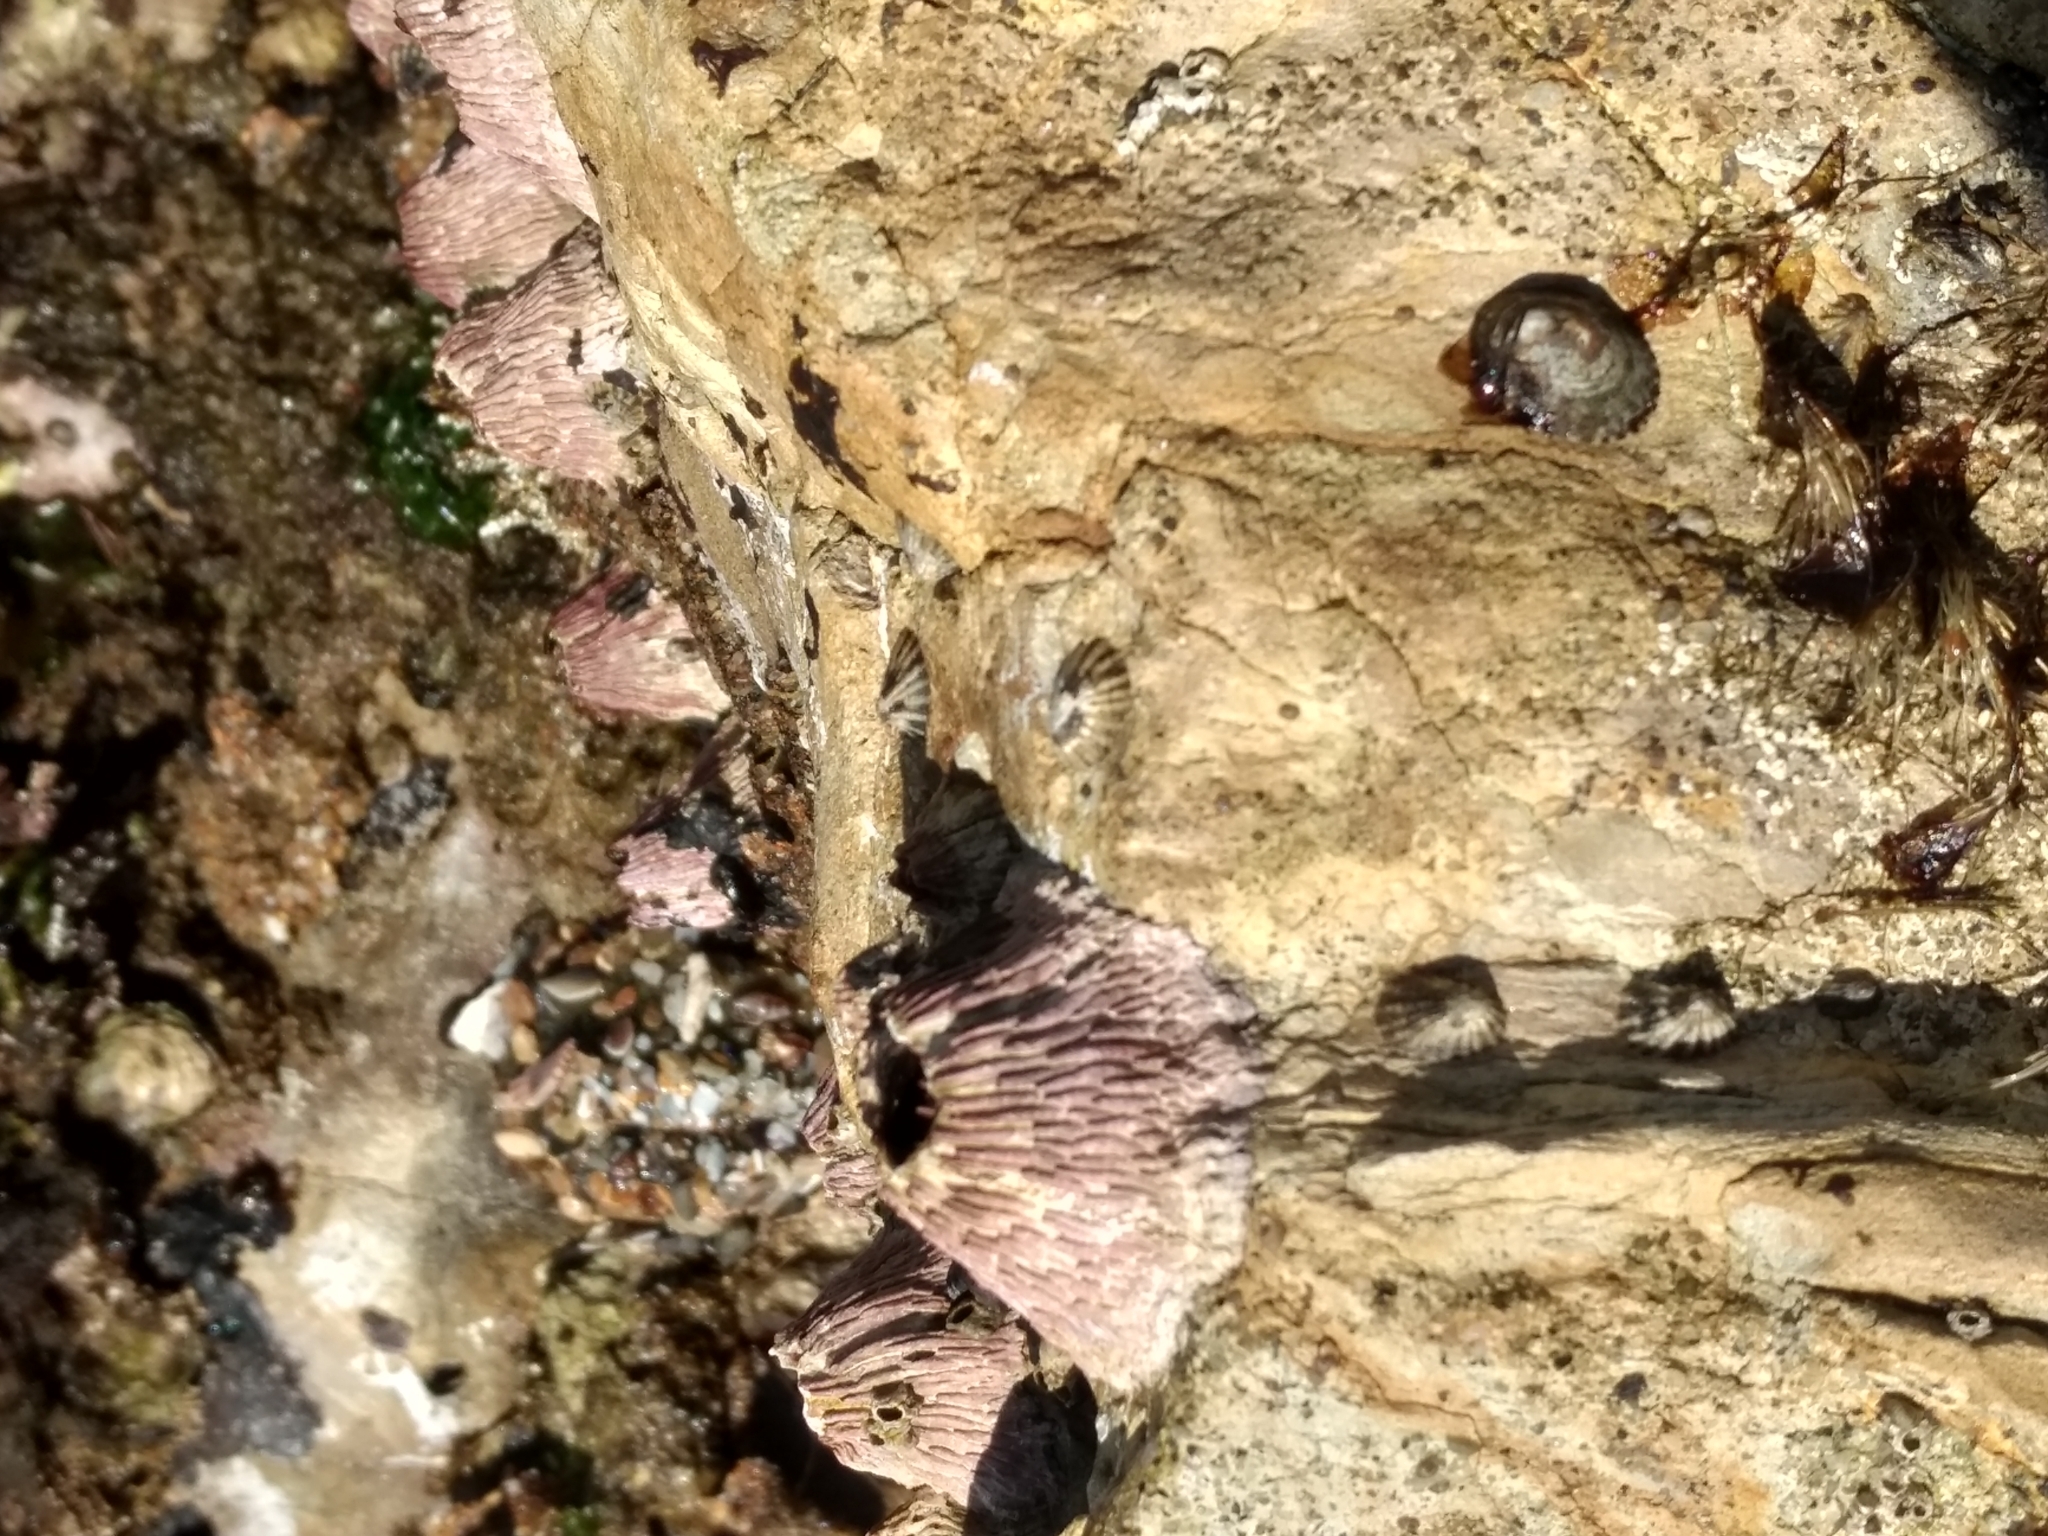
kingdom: Animalia
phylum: Arthropoda
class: Maxillopoda
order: Sessilia
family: Tetraclitidae
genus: Tetraclita
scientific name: Tetraclita rubescens
